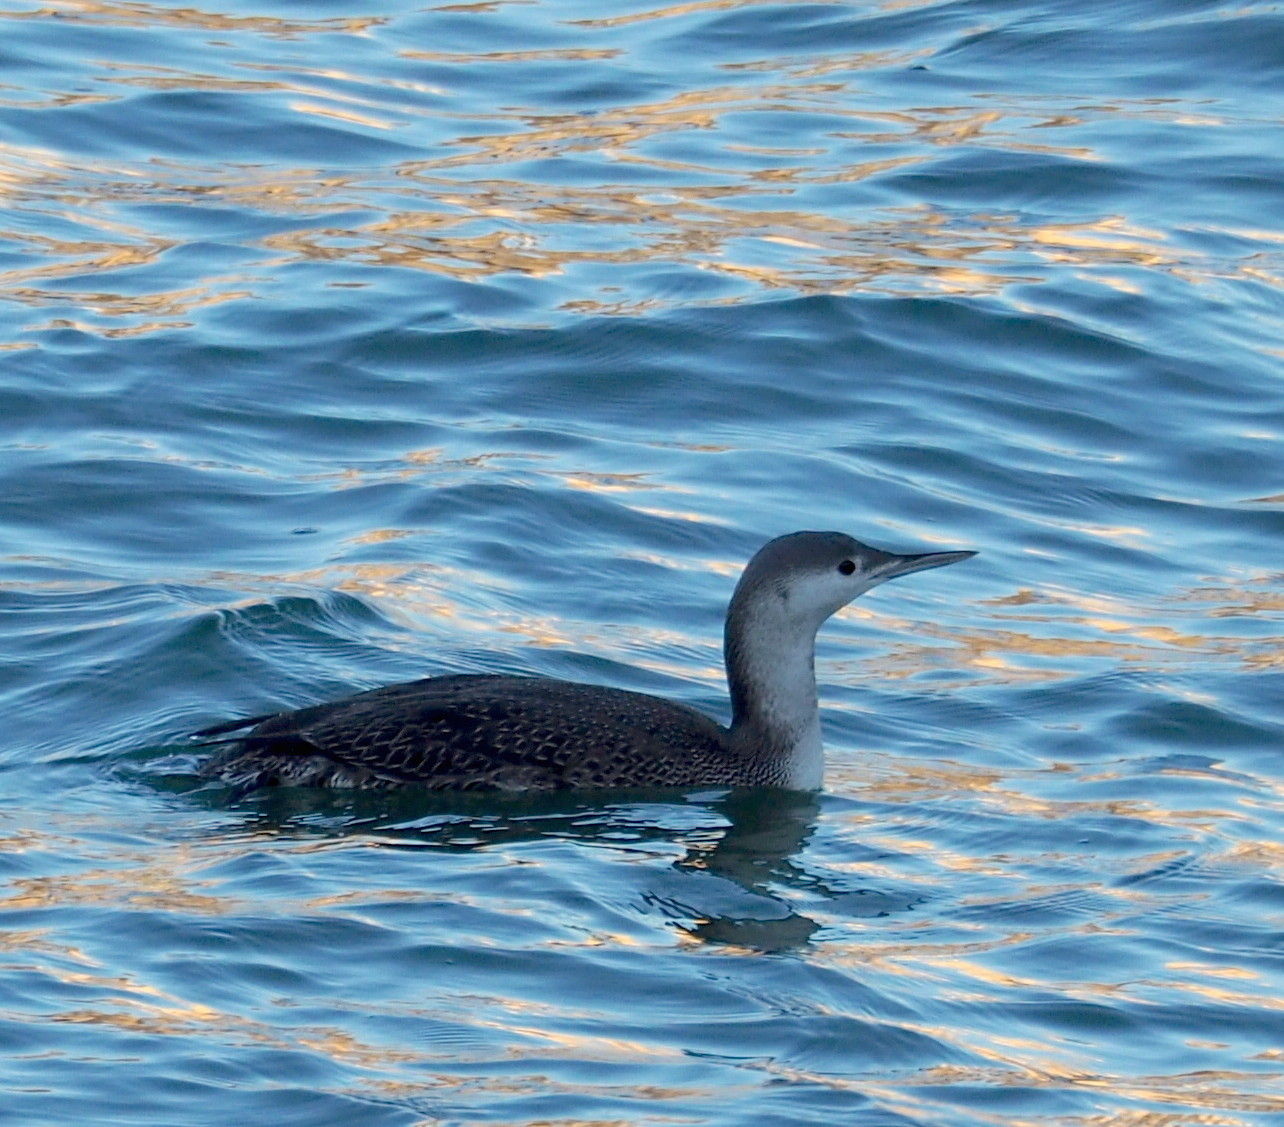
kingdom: Animalia
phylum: Chordata
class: Aves
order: Gaviiformes
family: Gaviidae
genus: Gavia
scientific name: Gavia stellata
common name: Red-throated loon
